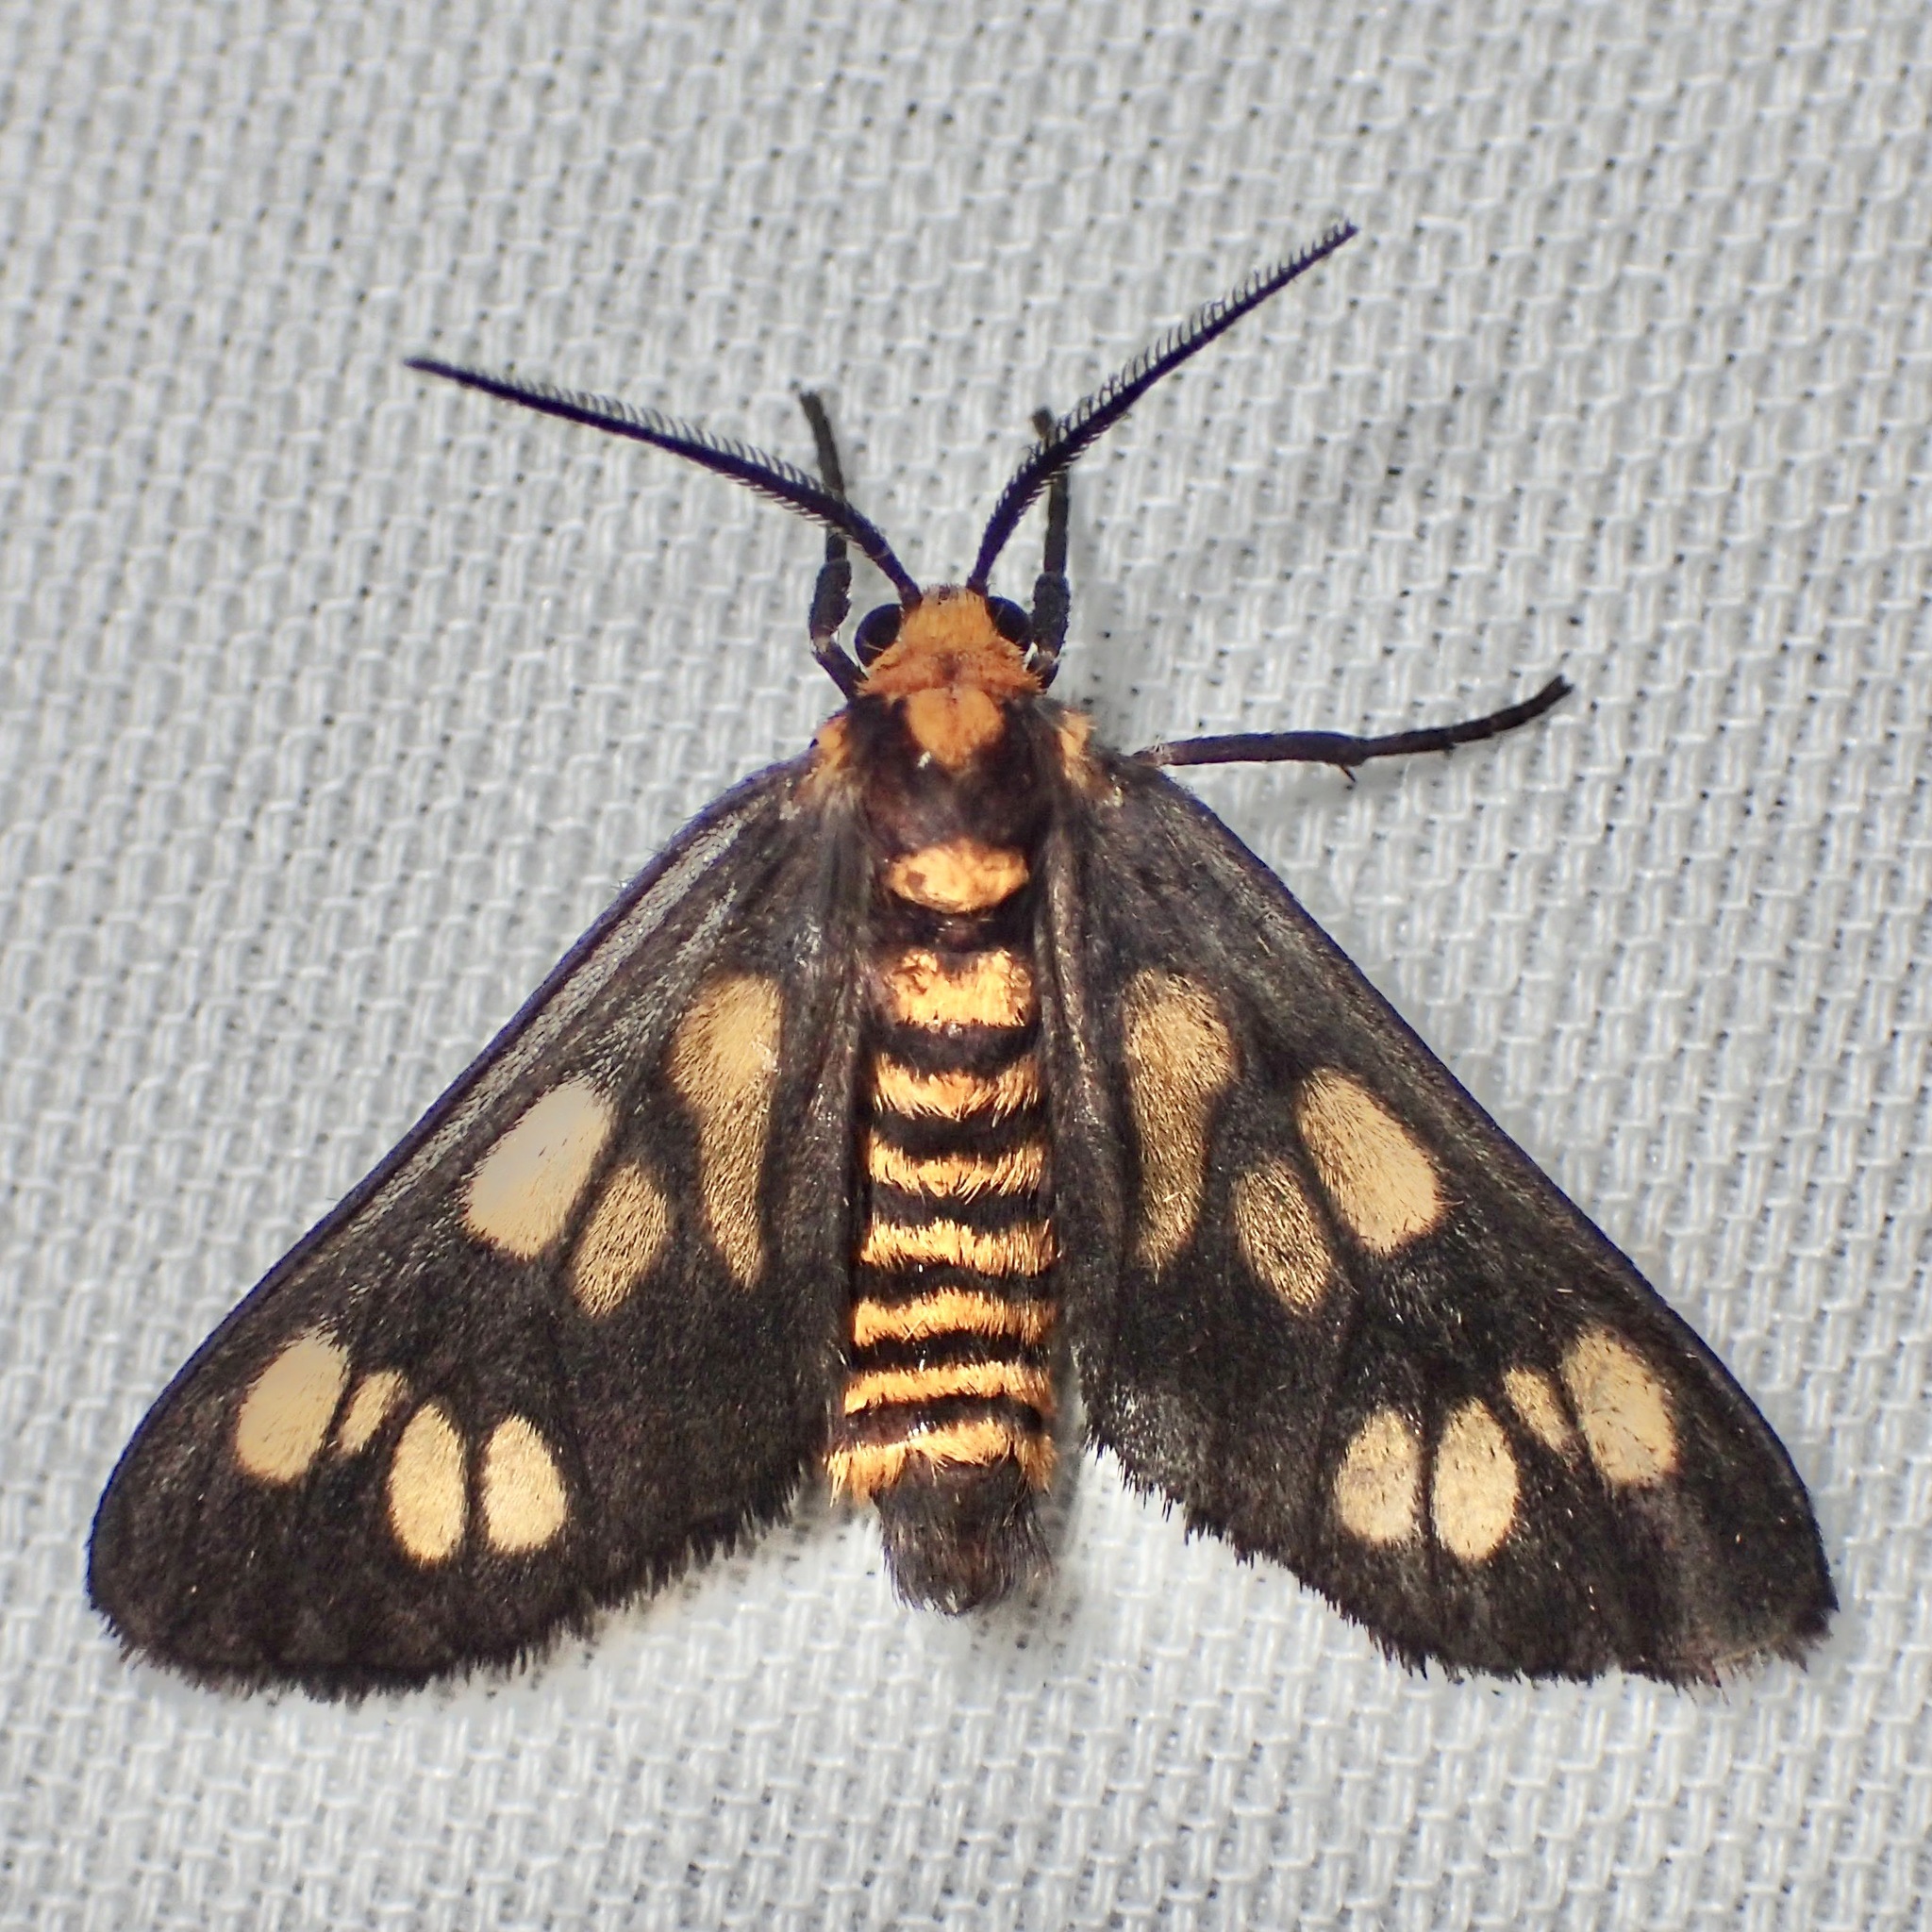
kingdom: Animalia
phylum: Arthropoda
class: Insecta
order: Lepidoptera
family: Erebidae
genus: Eressa
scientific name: Eressa strepsimeris
